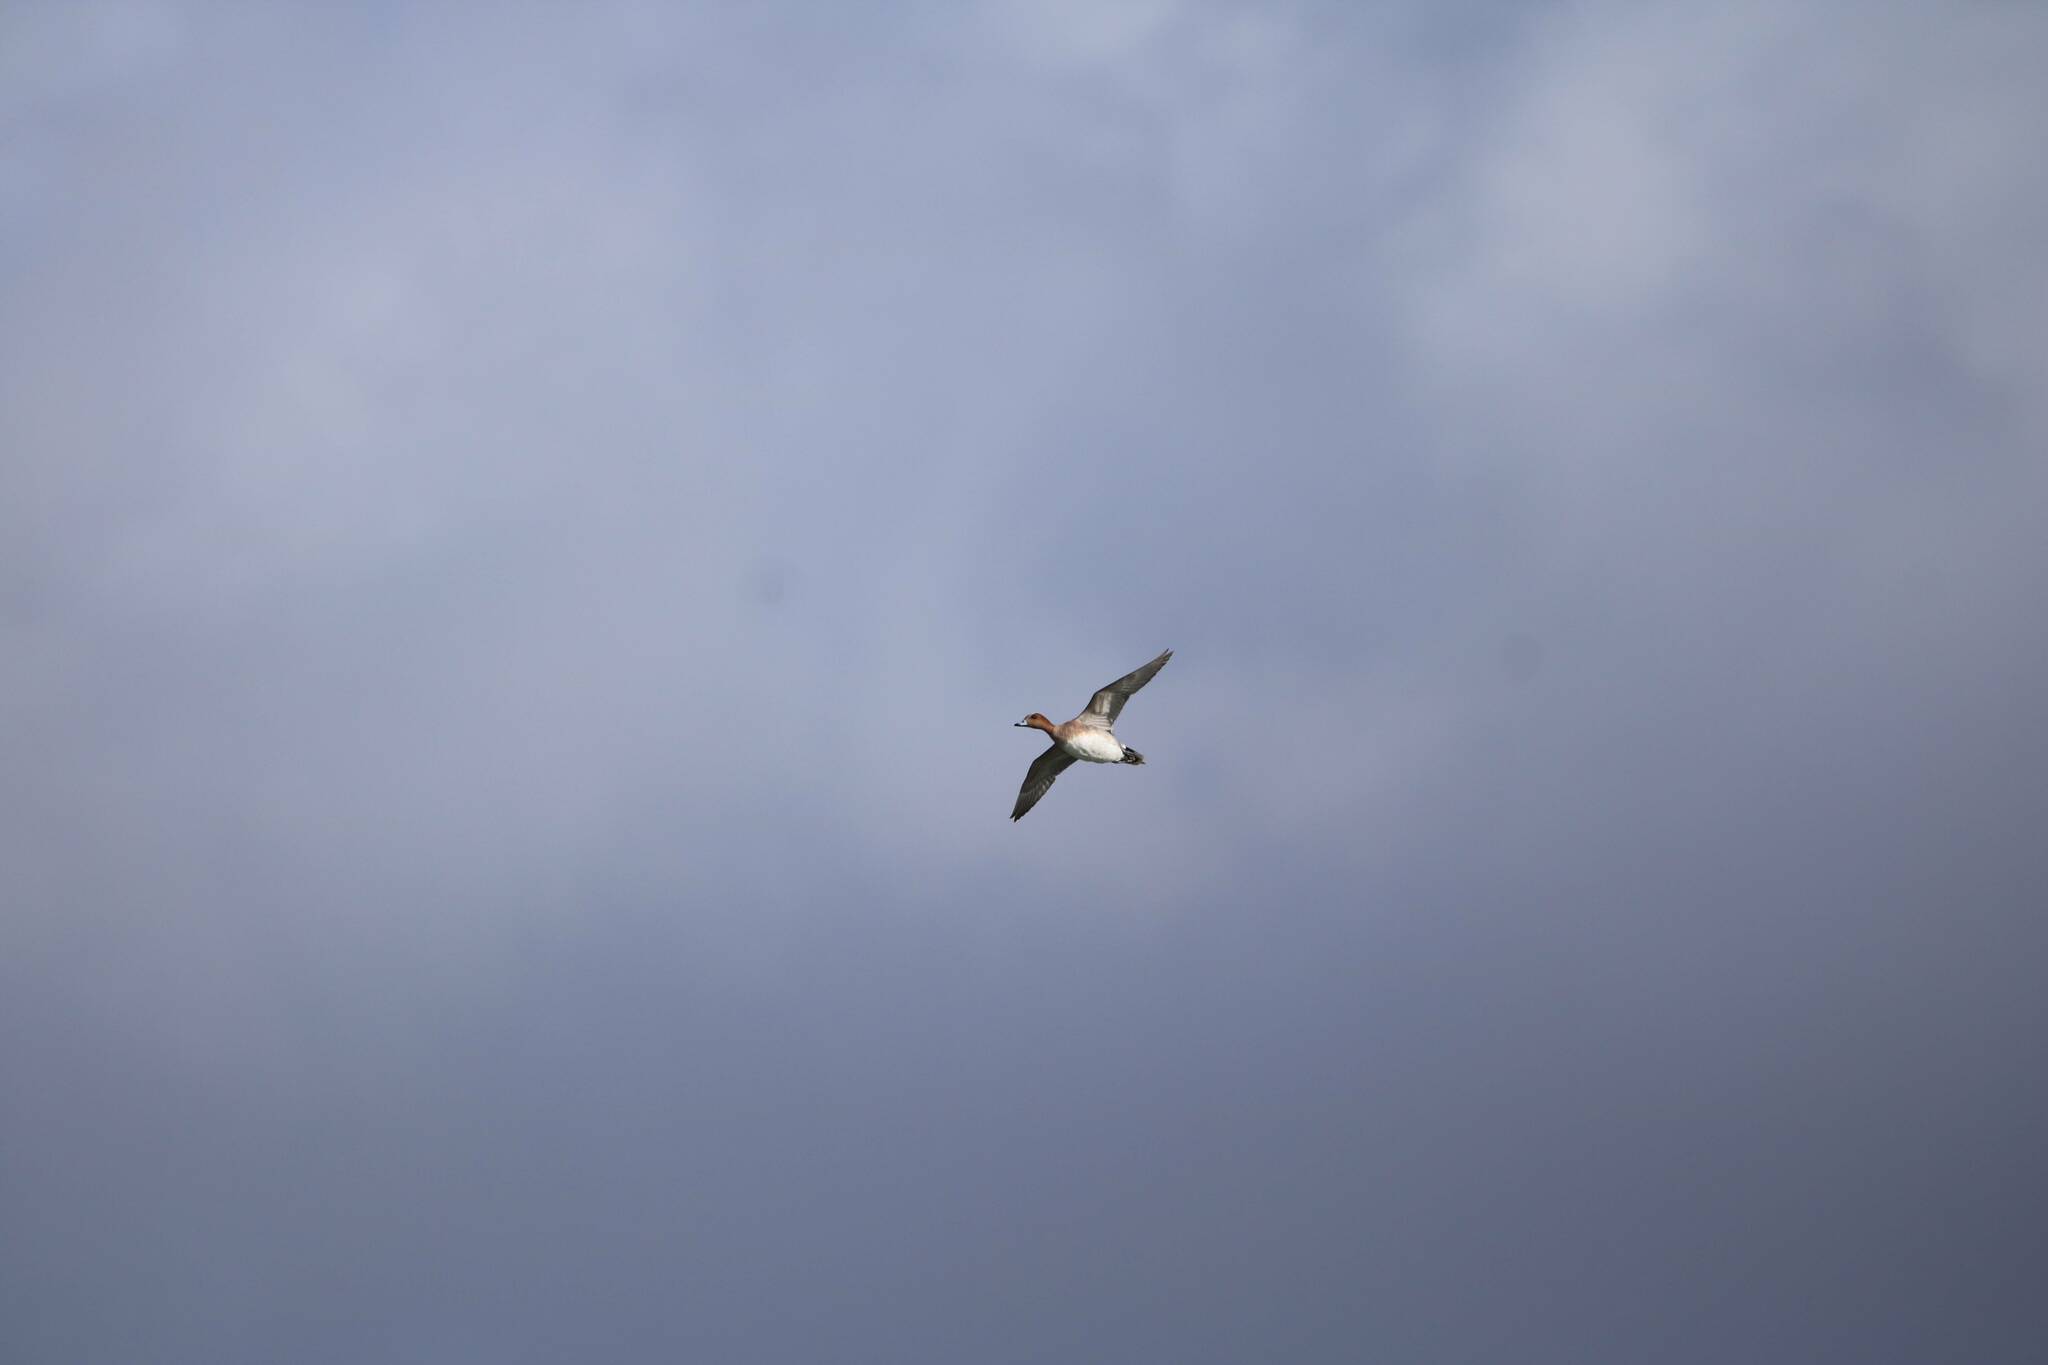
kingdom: Animalia
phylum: Chordata
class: Aves
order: Anseriformes
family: Anatidae
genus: Mareca
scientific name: Mareca penelope
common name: Eurasian wigeon
